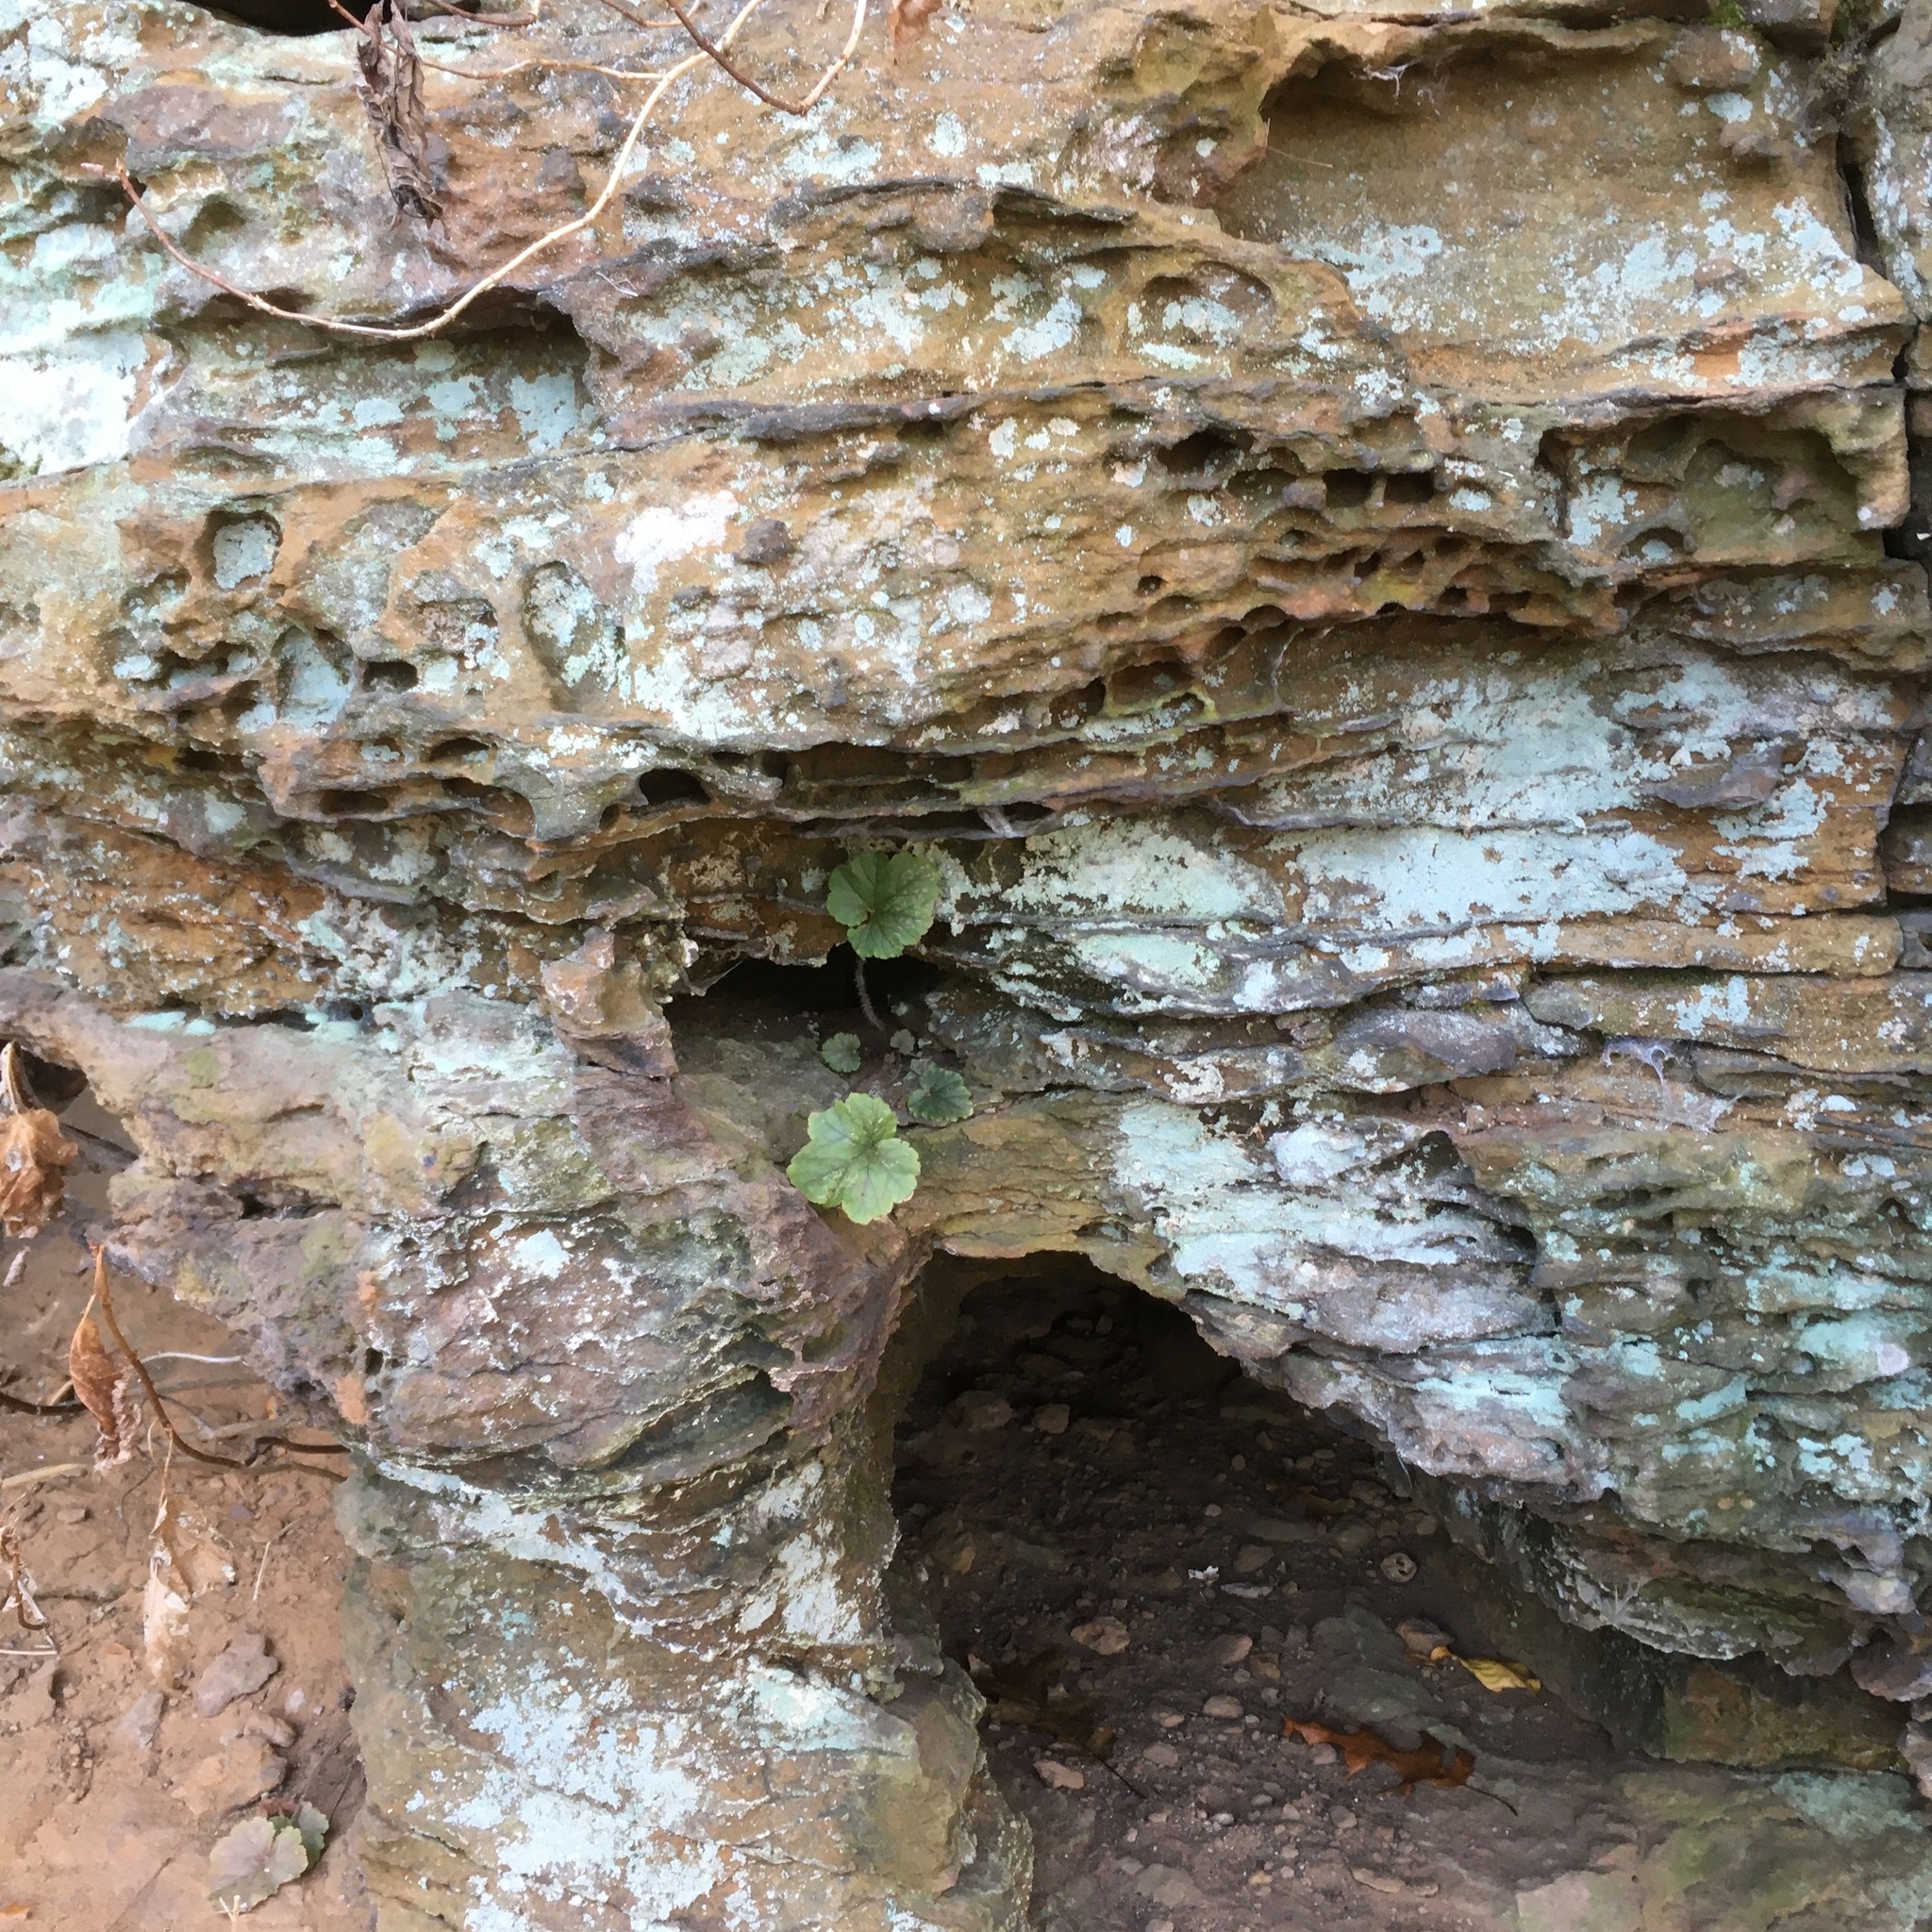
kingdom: Plantae
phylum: Tracheophyta
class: Magnoliopsida
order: Saxifragales
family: Saxifragaceae
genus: Heuchera
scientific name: Heuchera americana
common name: Alumroot
